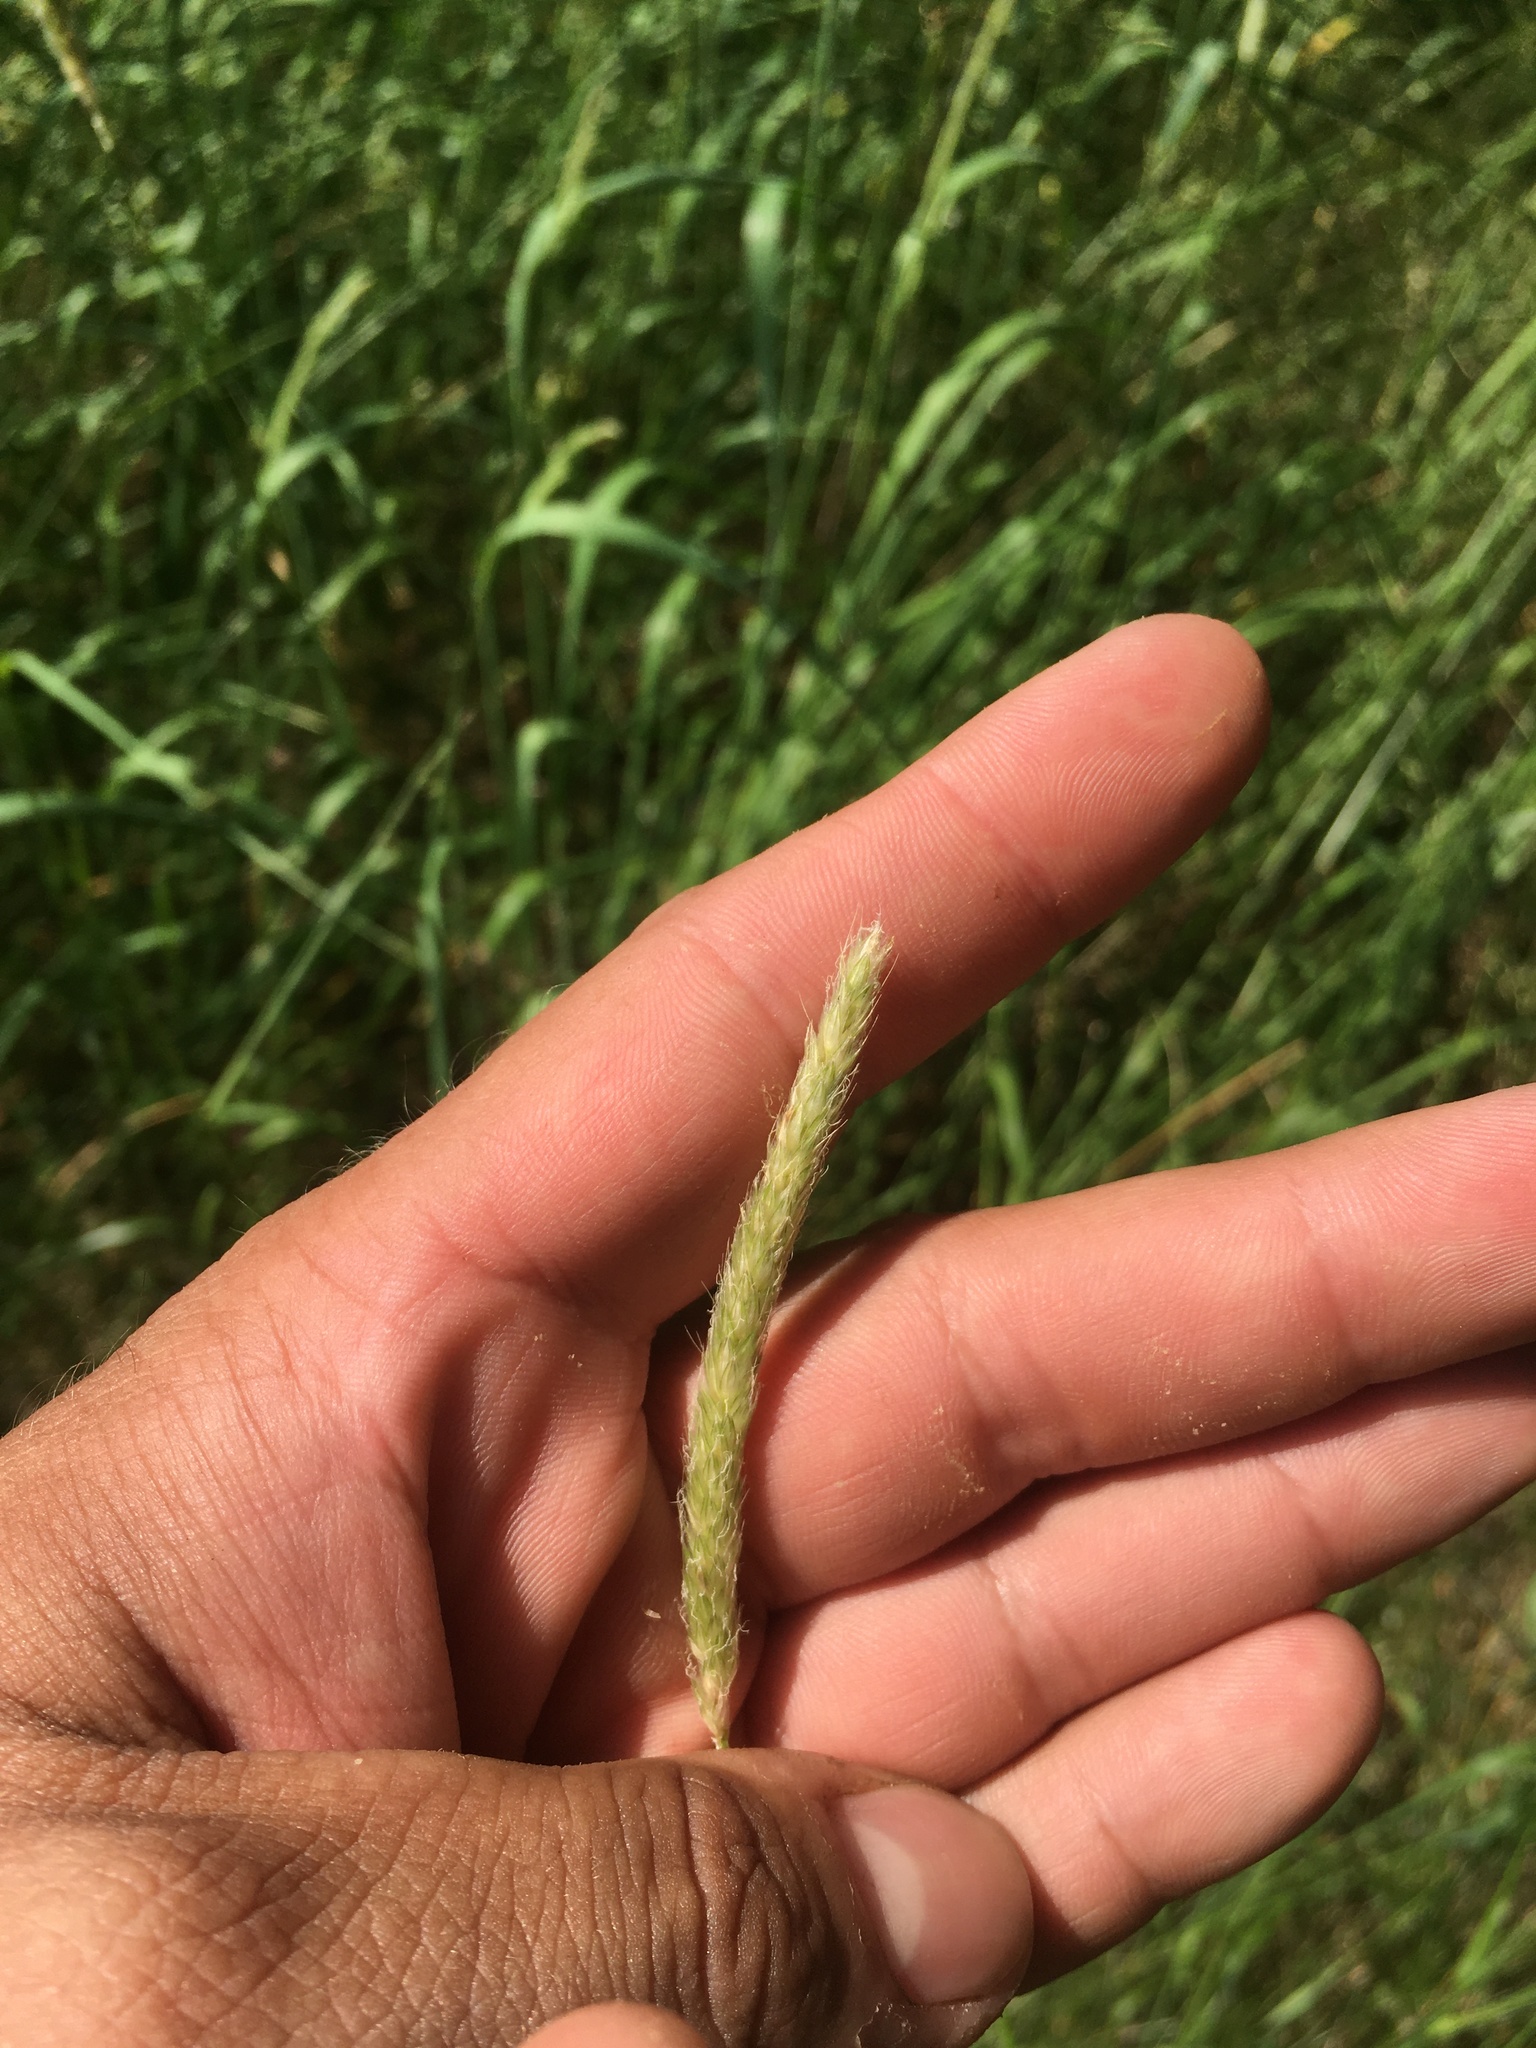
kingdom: Plantae
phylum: Tracheophyta
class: Liliopsida
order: Poales
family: Poaceae
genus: Alopecurus
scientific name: Alopecurus pratensis
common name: Meadow foxtail
